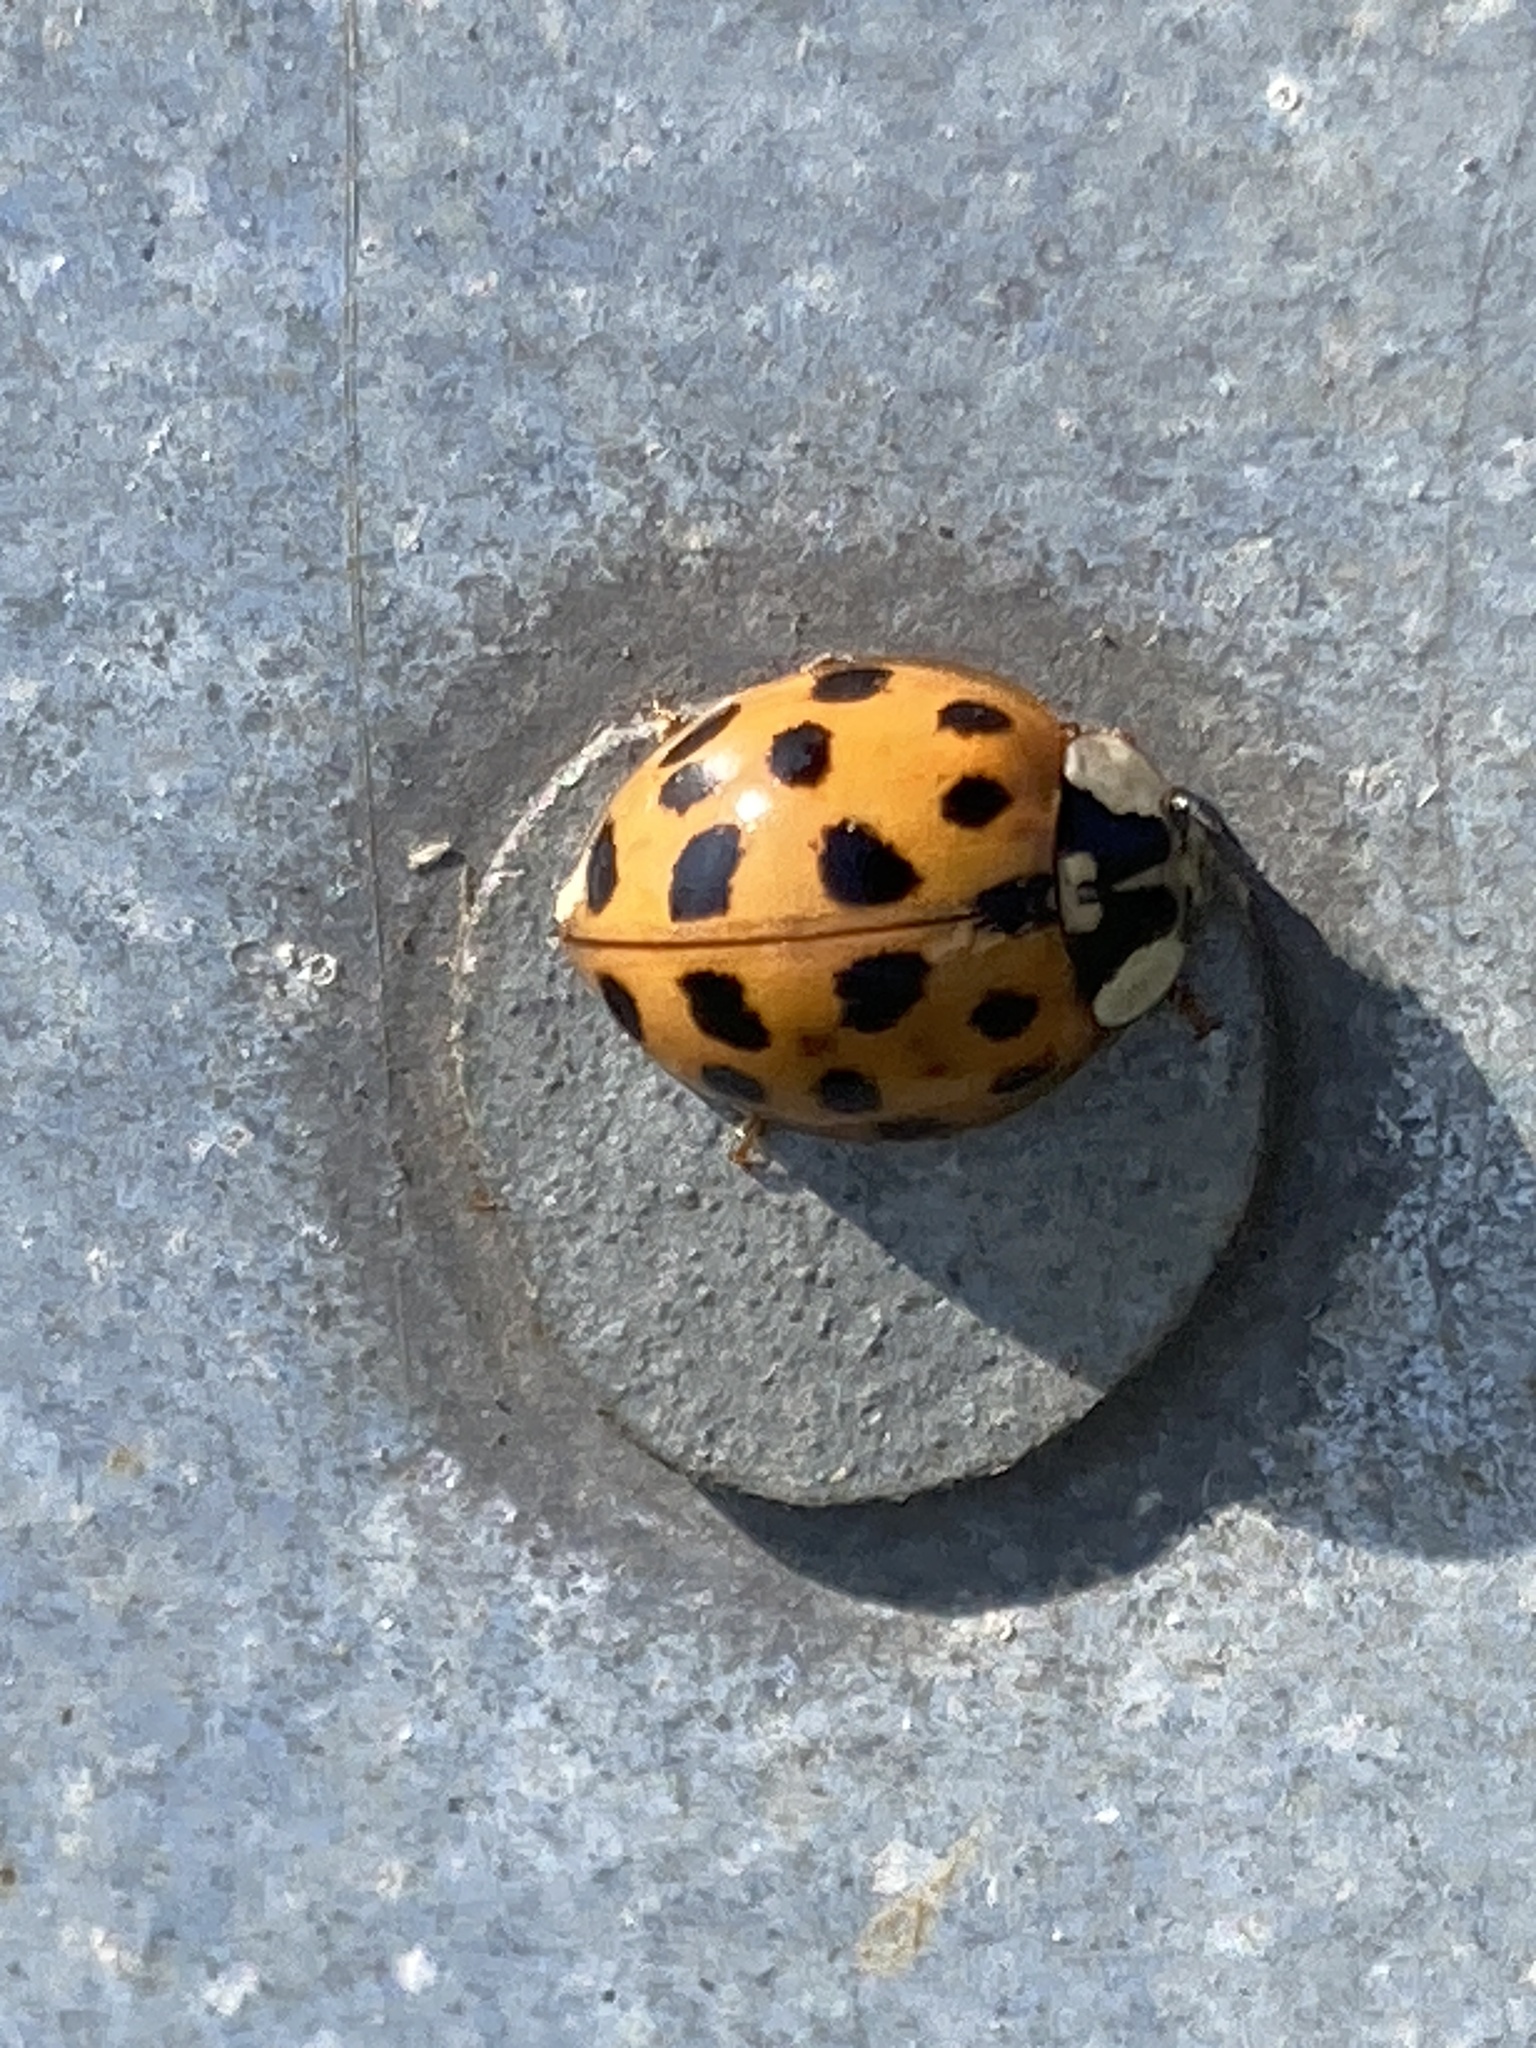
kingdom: Animalia
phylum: Arthropoda
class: Insecta
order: Coleoptera
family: Coccinellidae
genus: Harmonia
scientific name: Harmonia axyridis
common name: Harlequin ladybird
